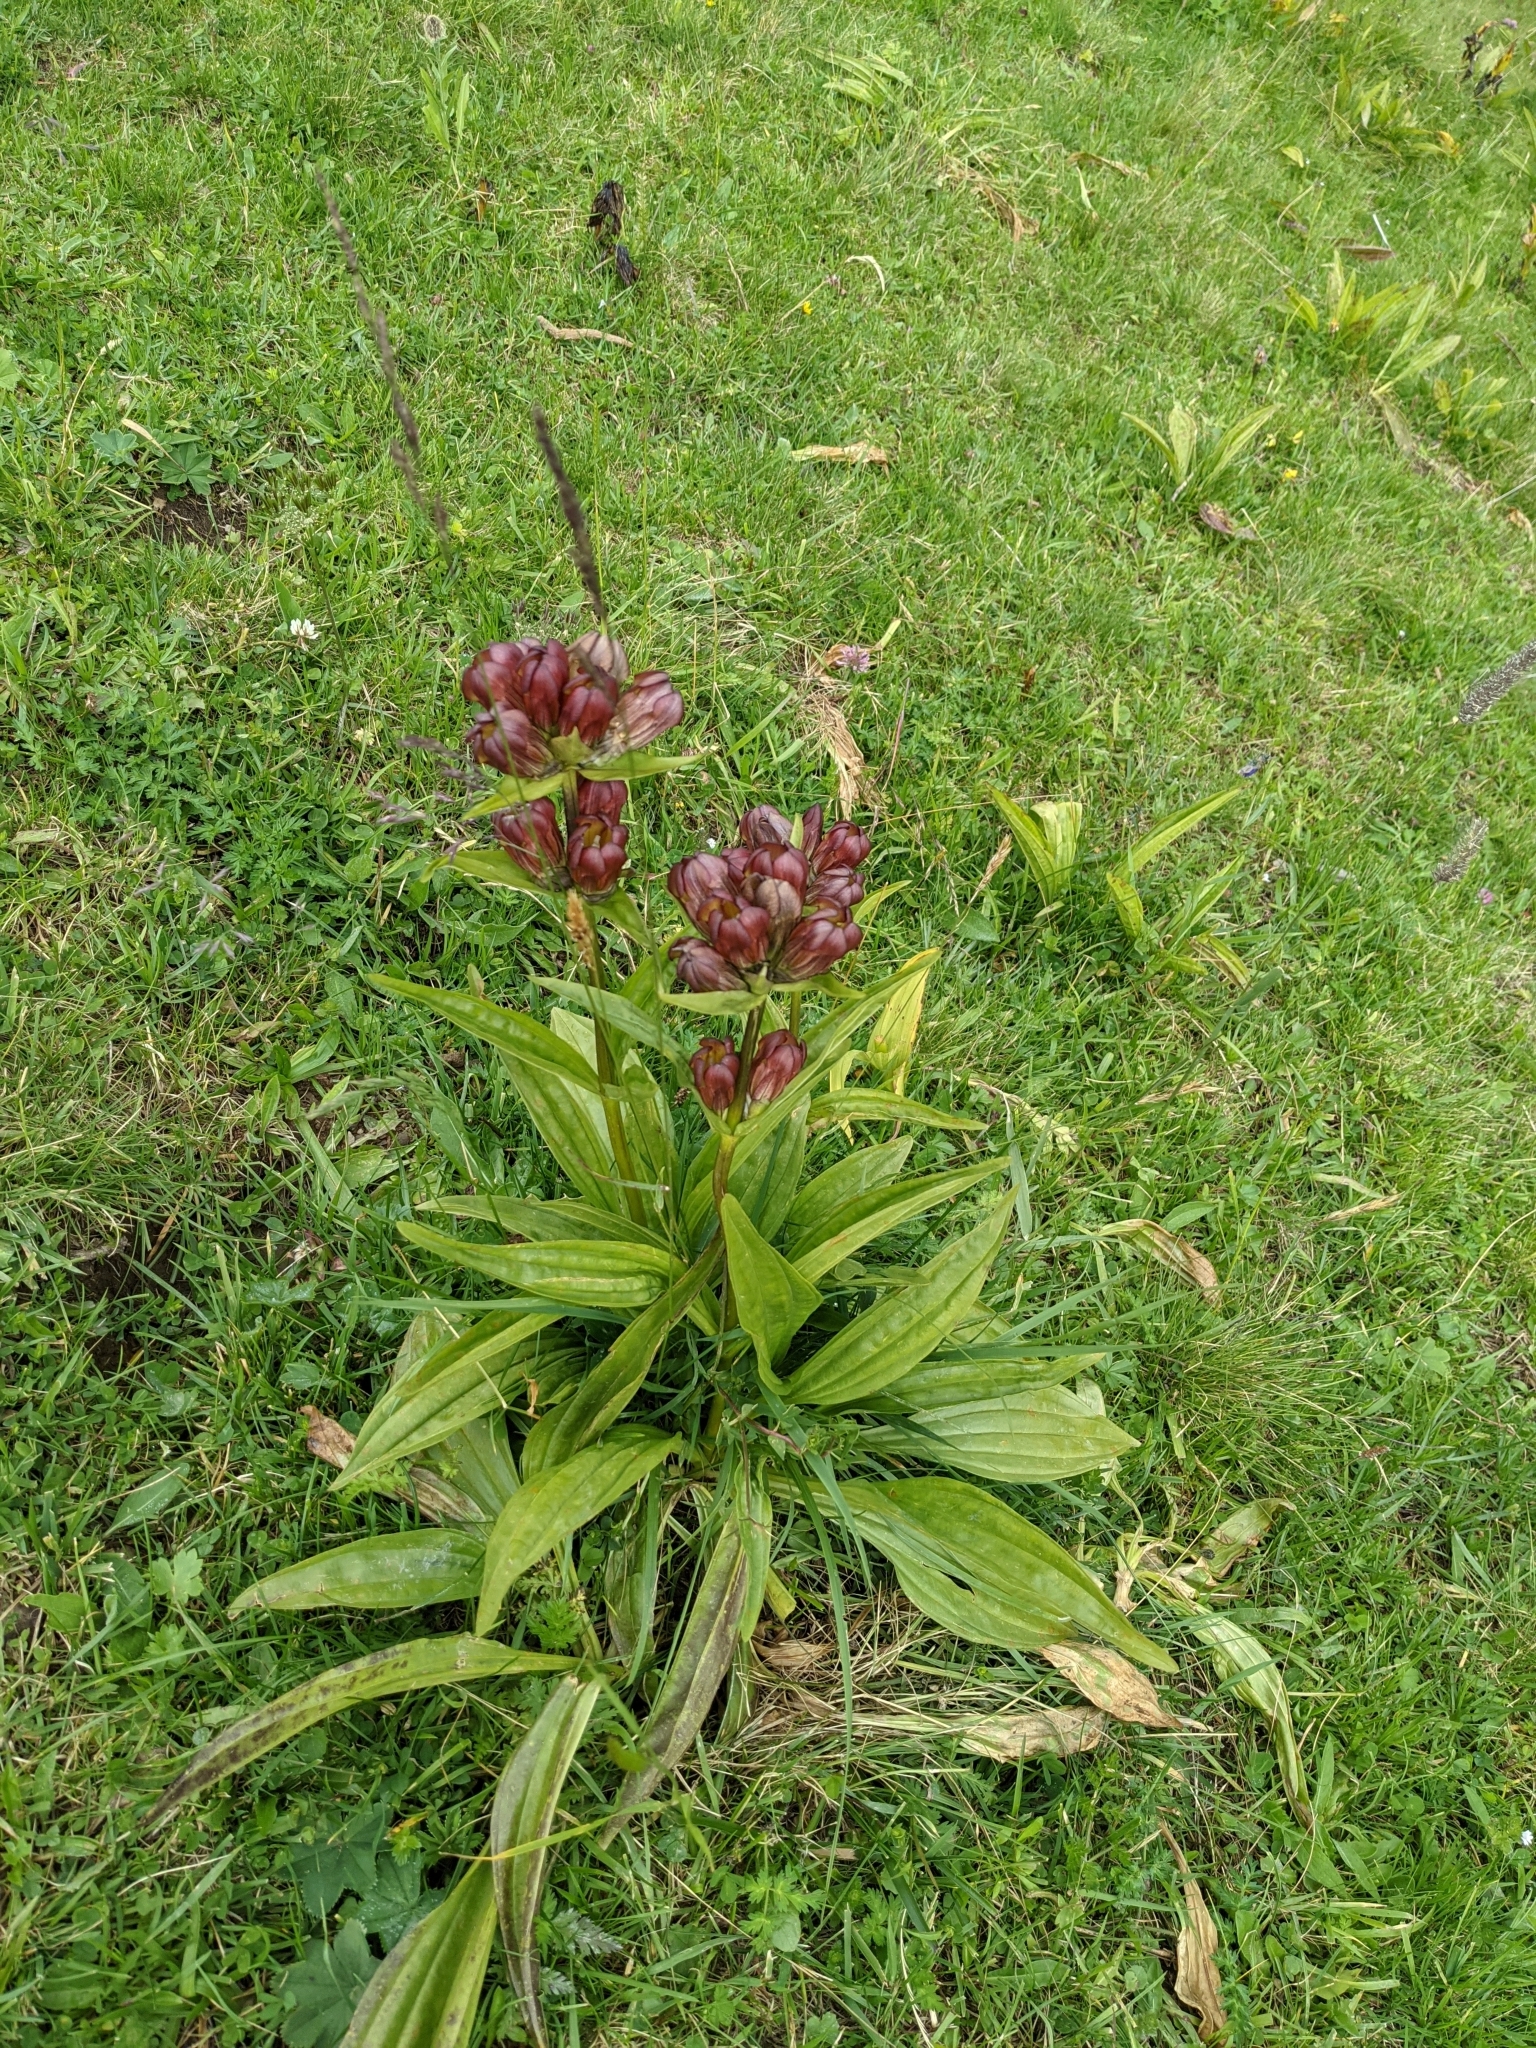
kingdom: Plantae
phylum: Tracheophyta
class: Magnoliopsida
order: Gentianales
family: Gentianaceae
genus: Gentiana
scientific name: Gentiana purpurea
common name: Purple gentian
